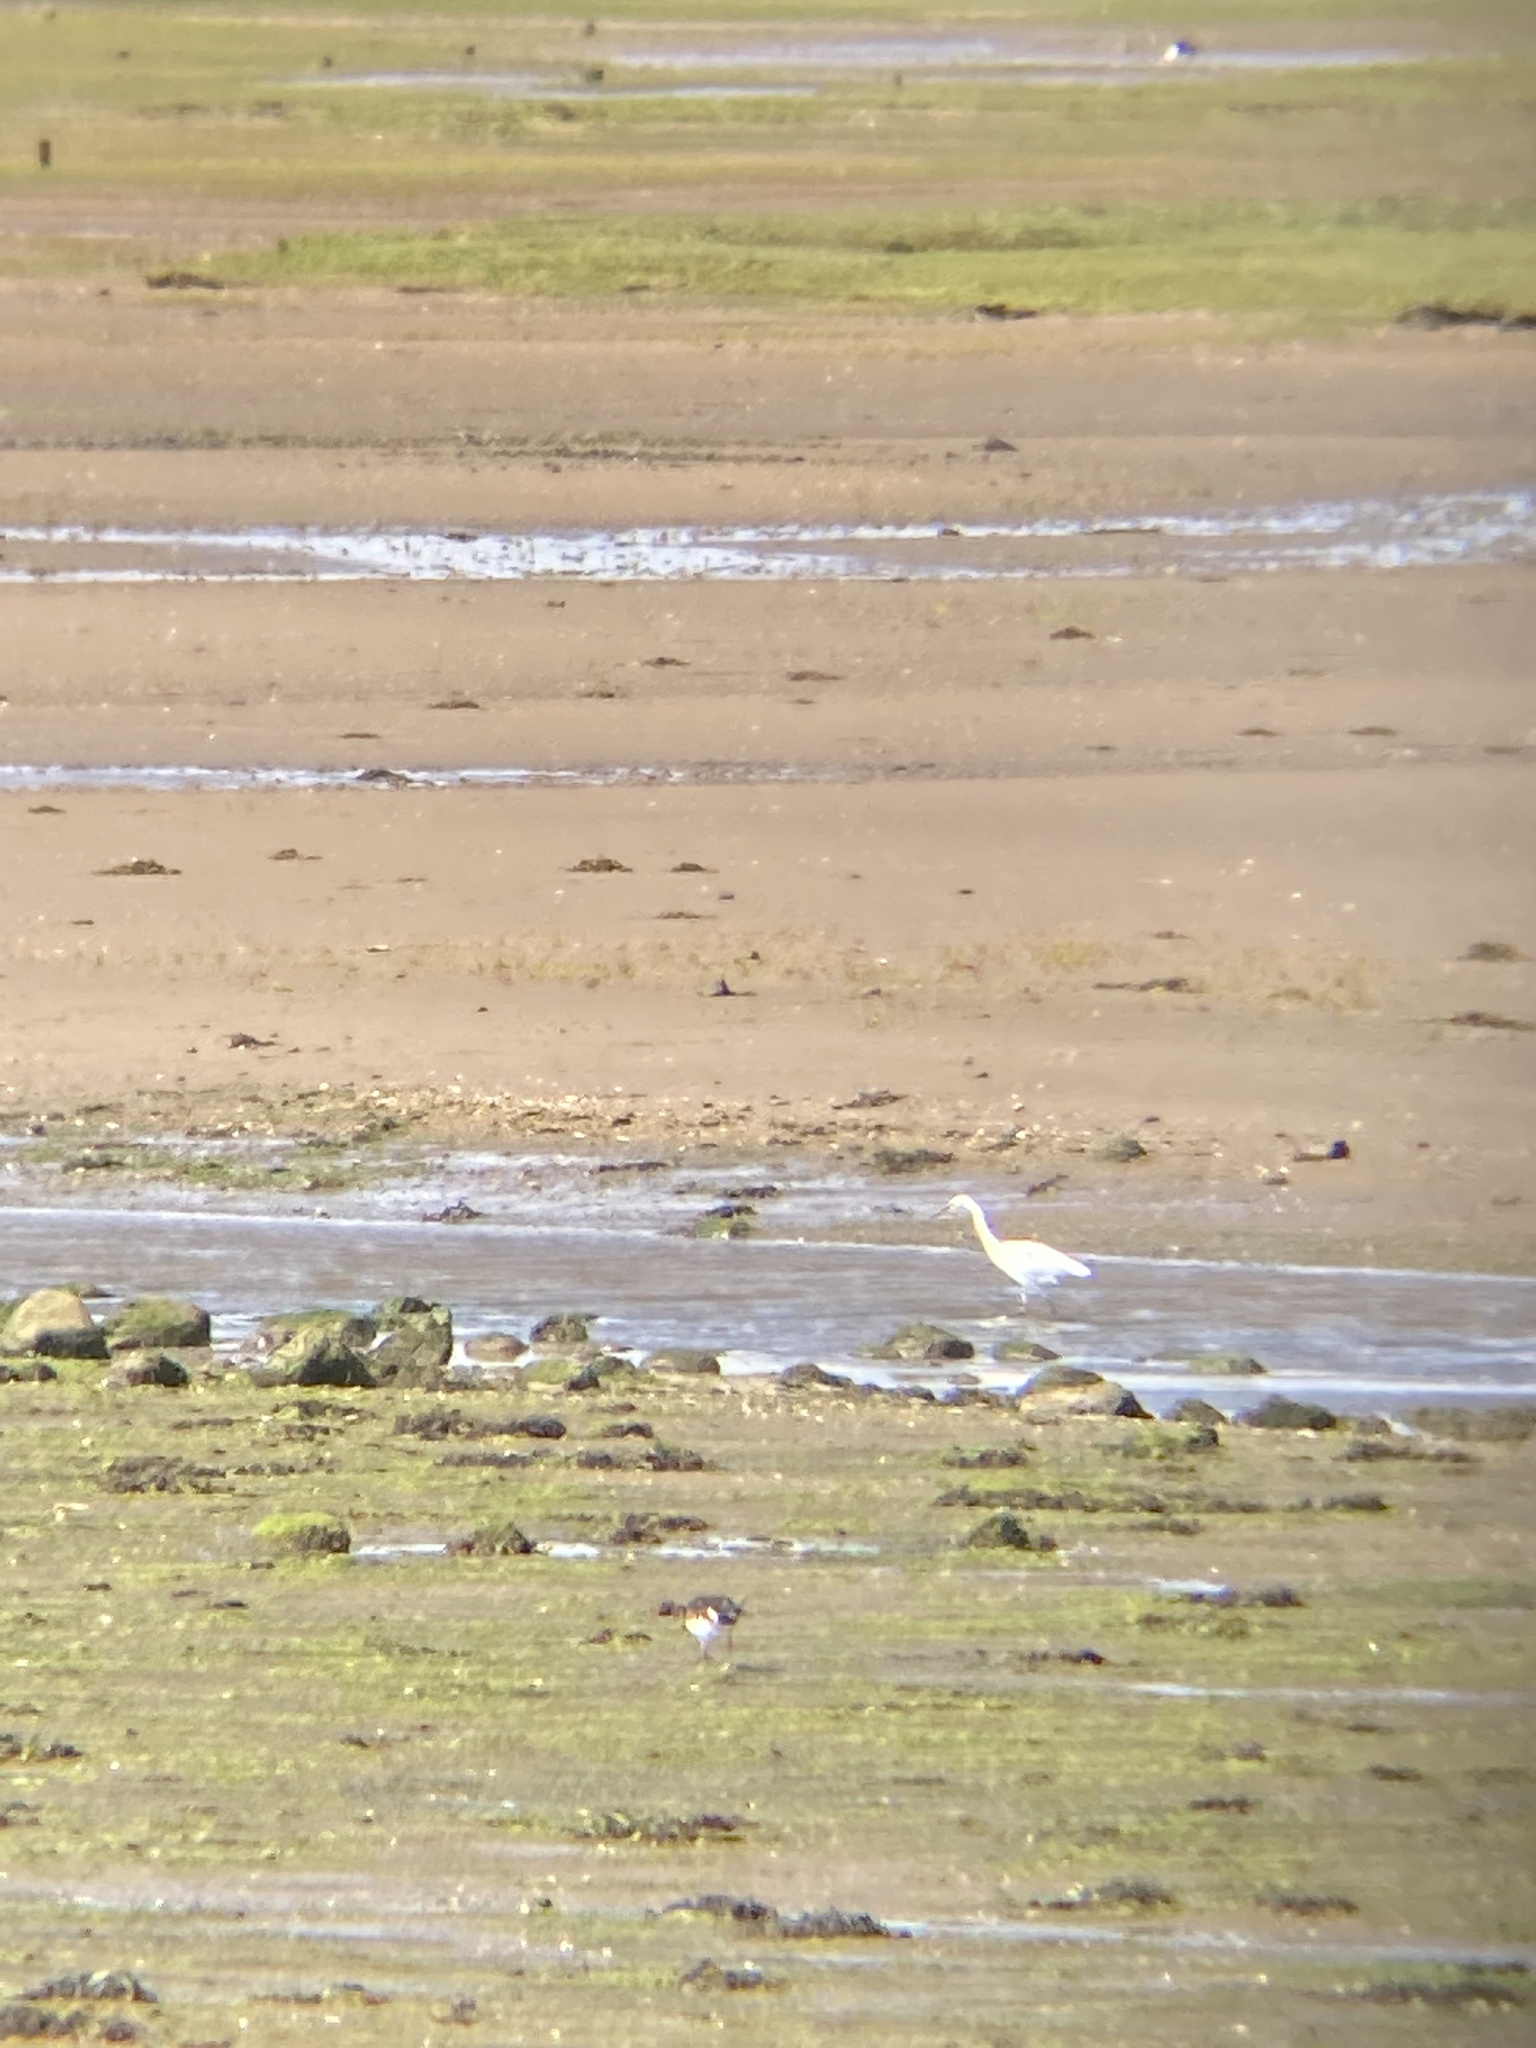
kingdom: Animalia
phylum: Chordata
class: Aves
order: Pelecaniformes
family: Ardeidae
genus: Egretta
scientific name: Egretta garzetta
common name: Little egret
